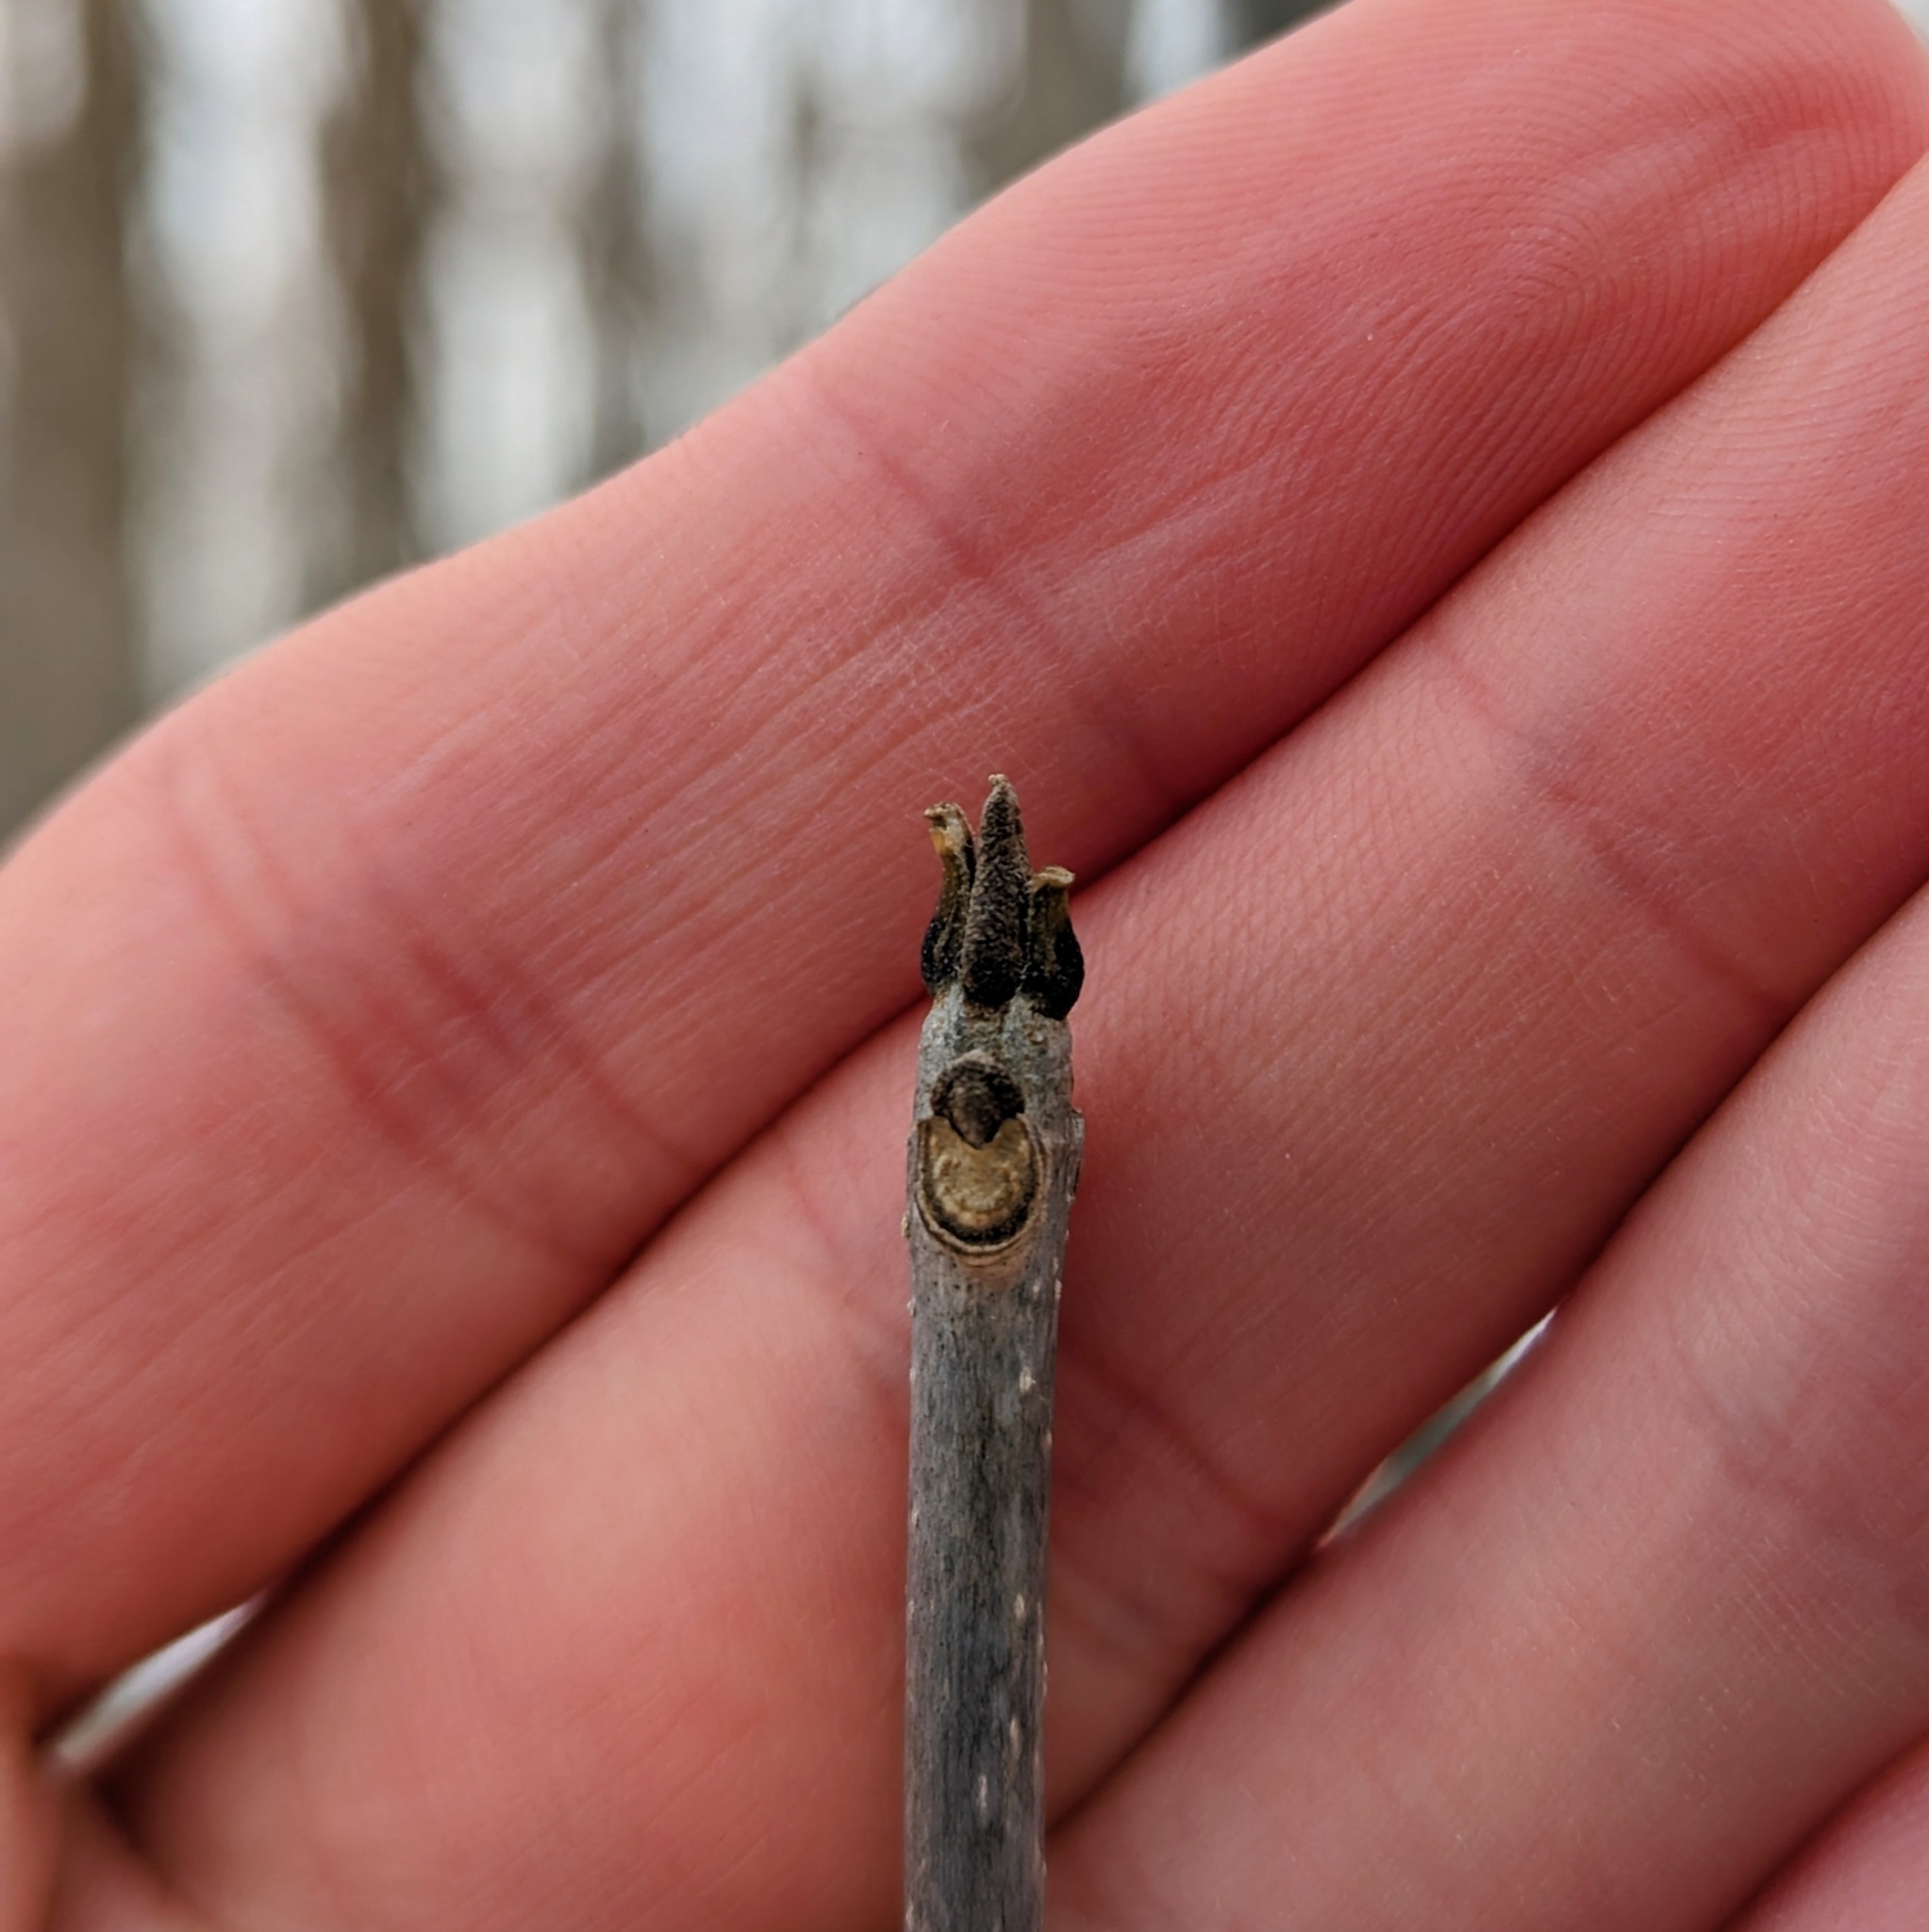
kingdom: Plantae
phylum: Tracheophyta
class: Magnoliopsida
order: Lamiales
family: Oleaceae
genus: Fraxinus
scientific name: Fraxinus pennsylvanica
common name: Green ash
